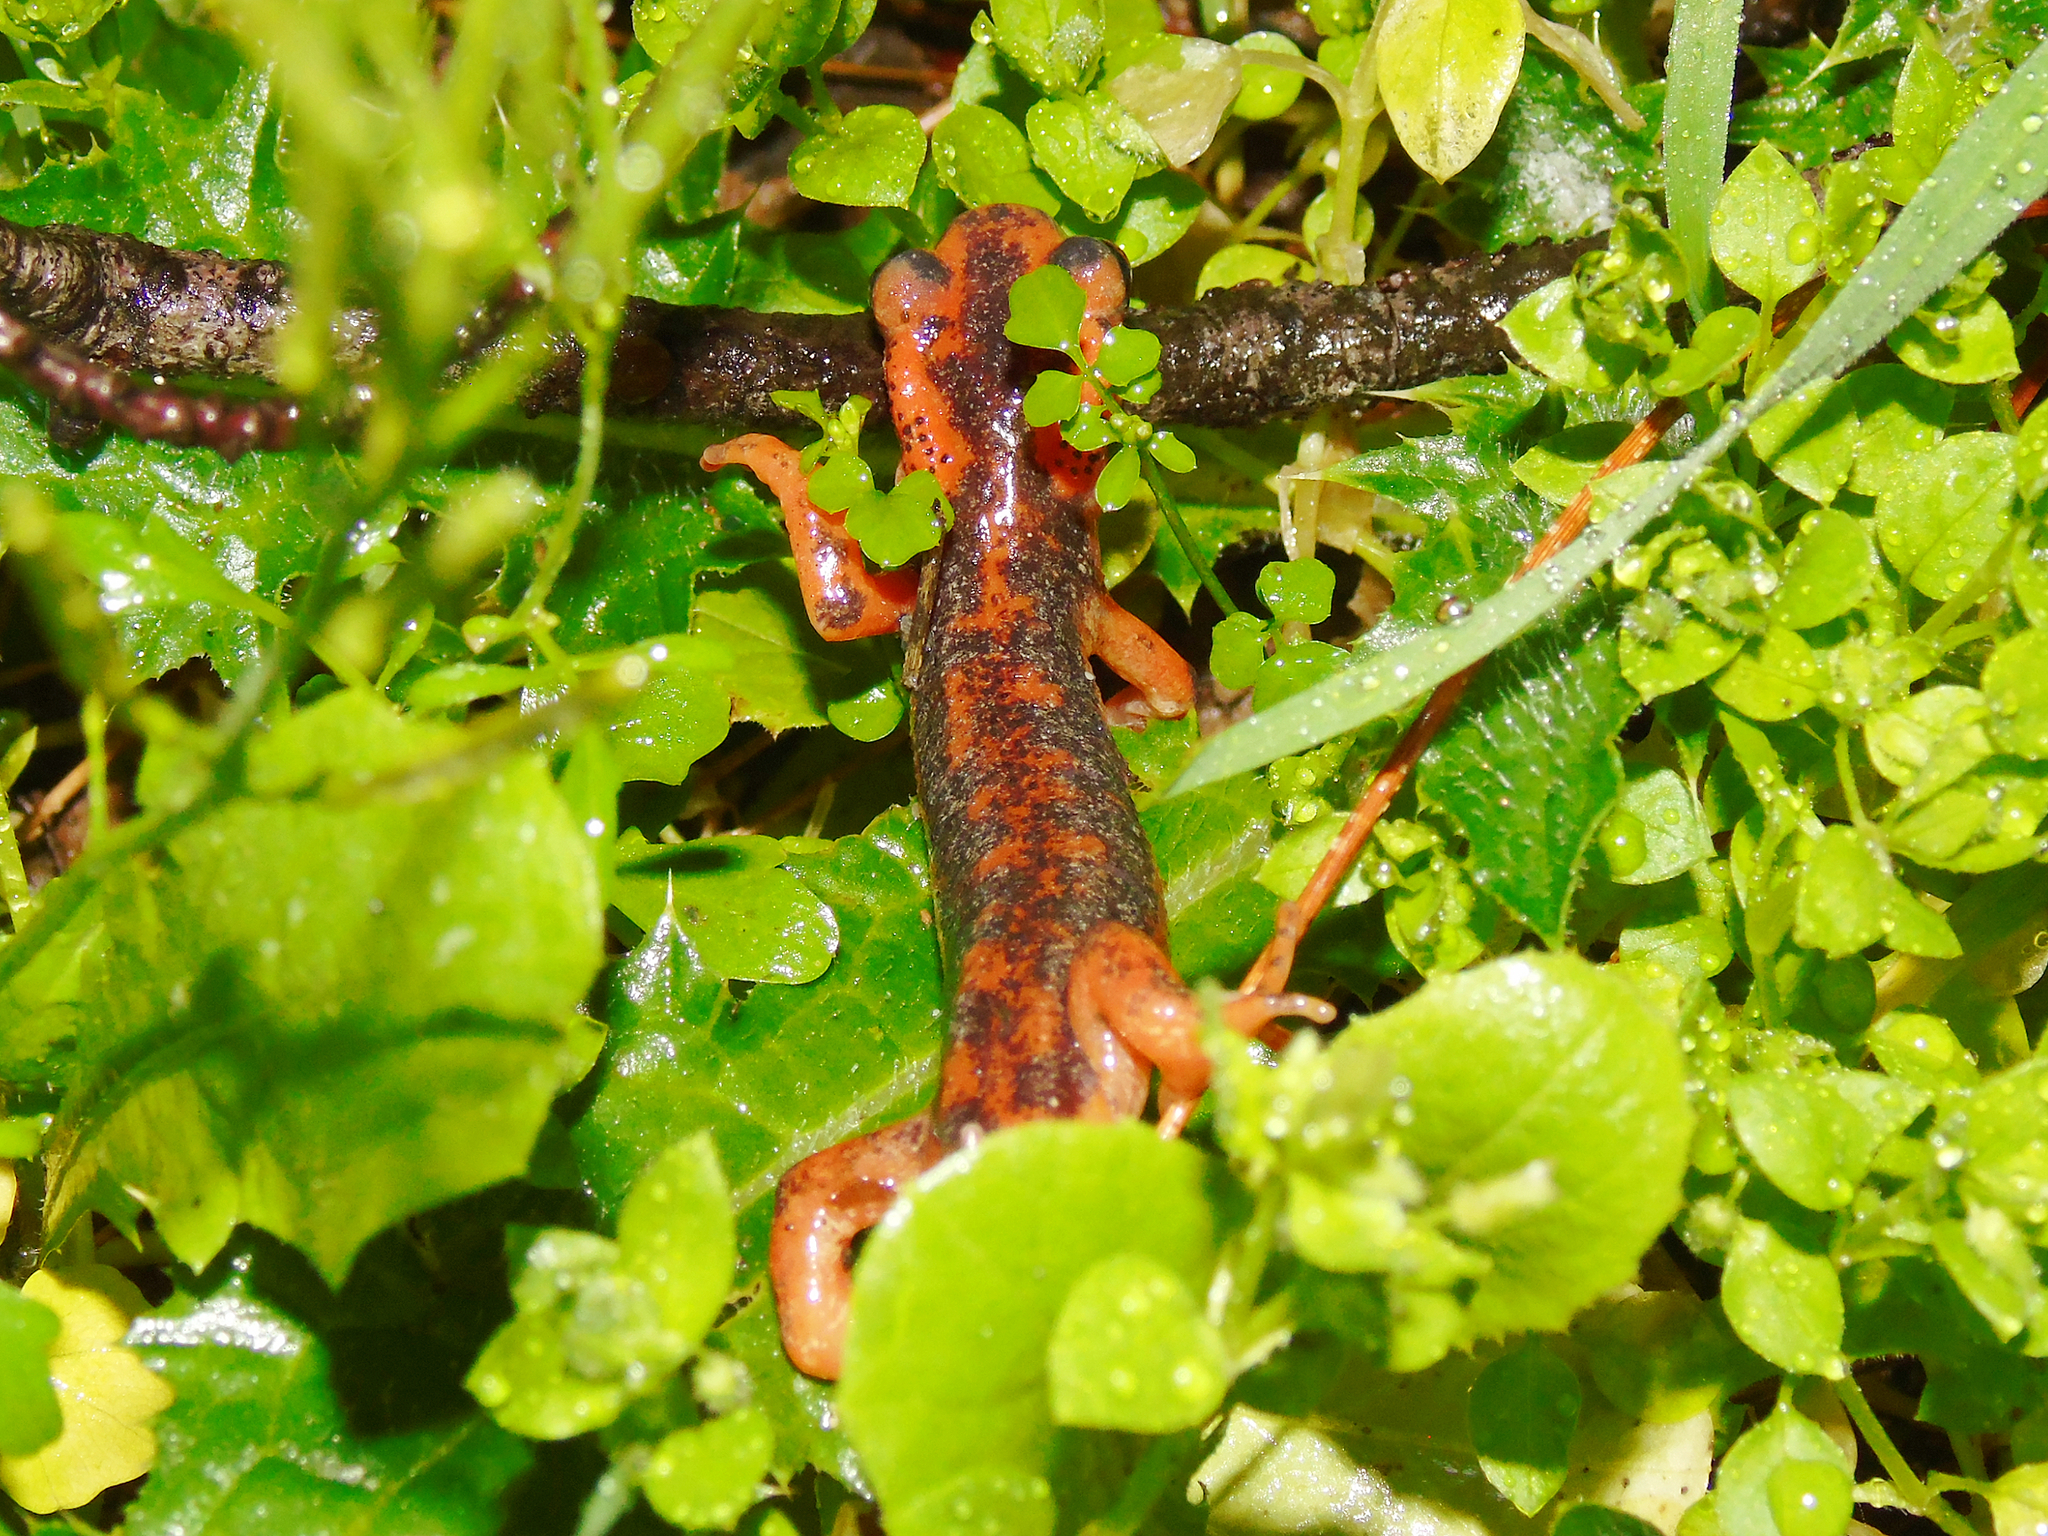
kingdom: Animalia
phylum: Chordata
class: Amphibia
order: Caudata
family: Salamandridae
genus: Lyciasalamandra
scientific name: Lyciasalamandra fazilae
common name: Fazila's salamander
